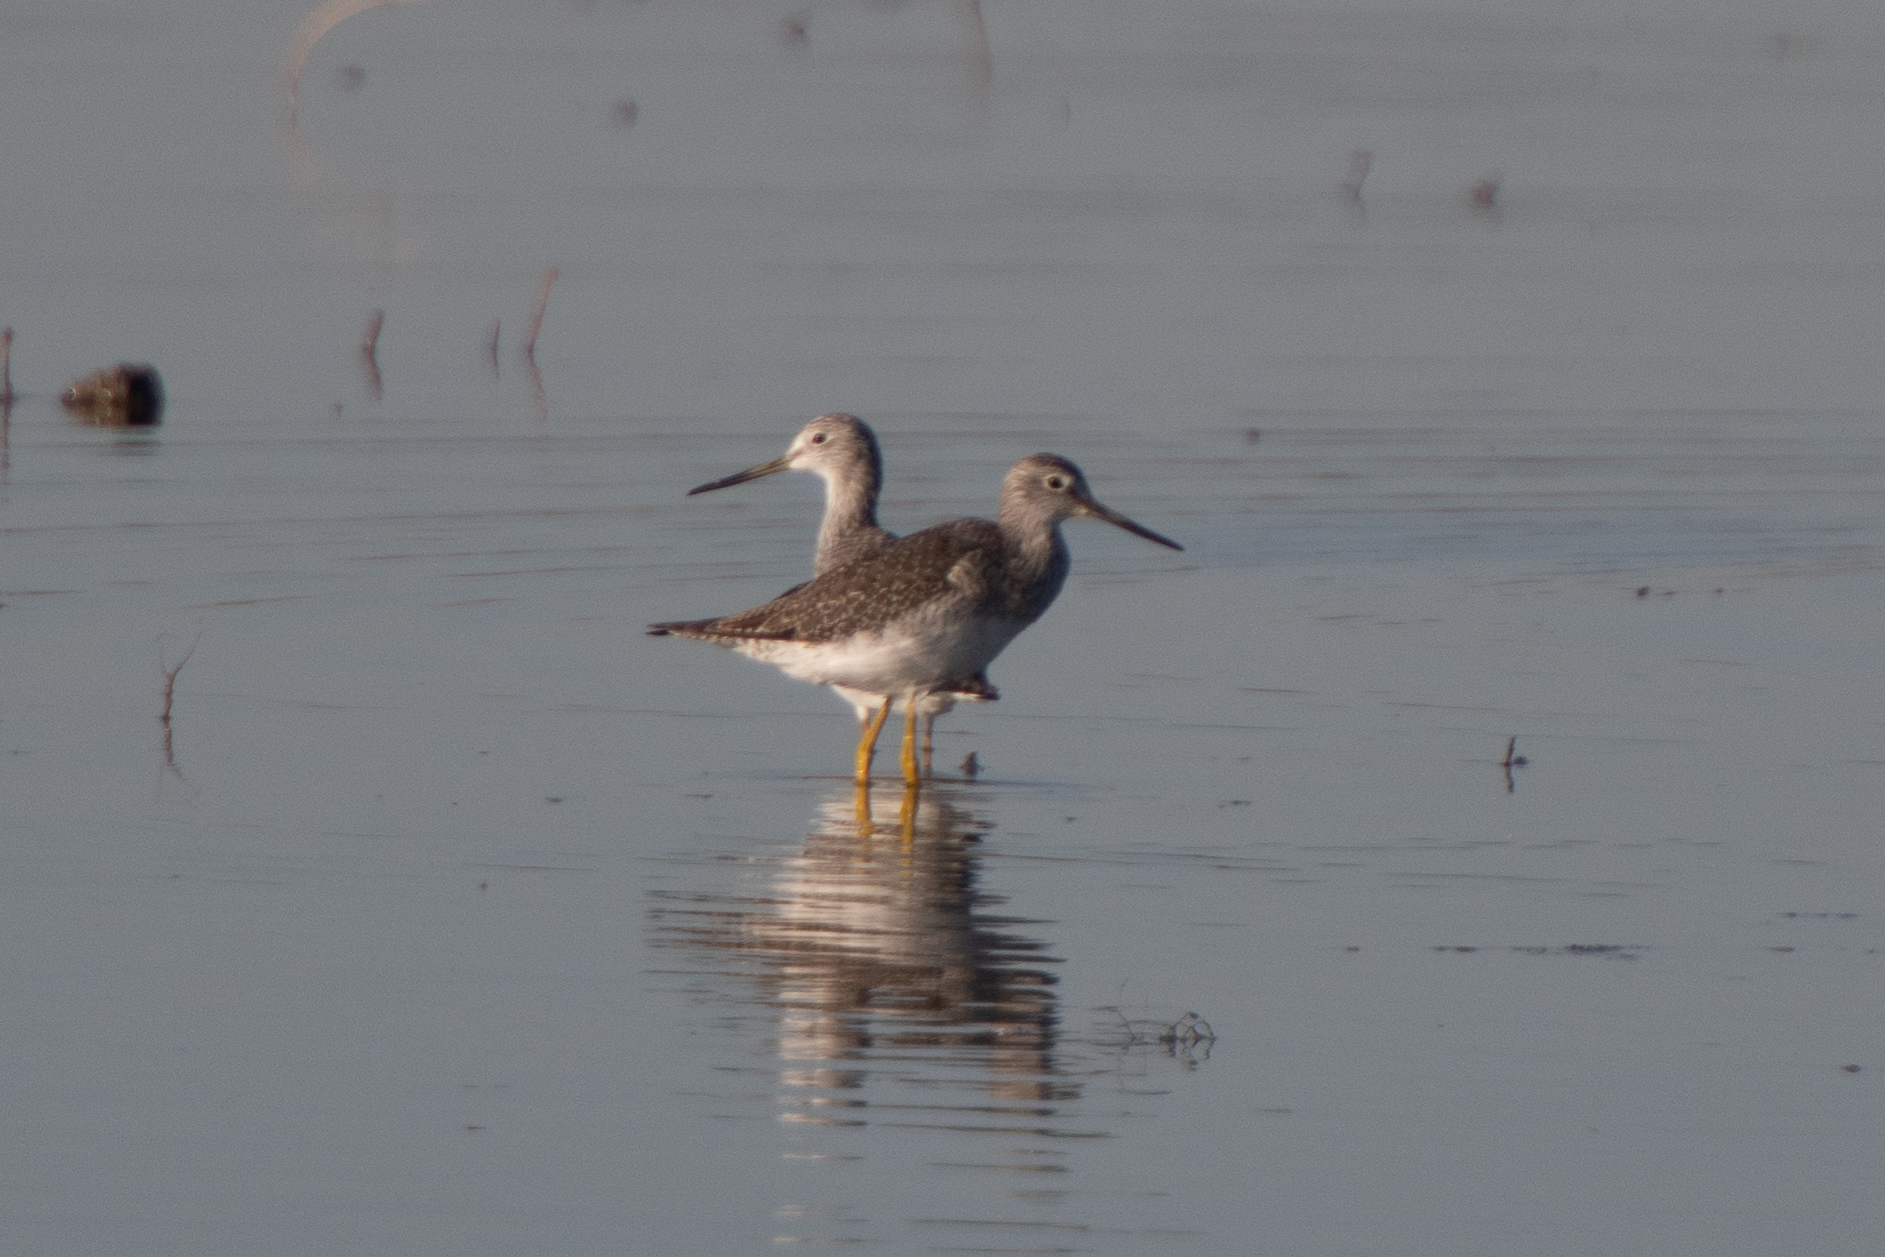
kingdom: Animalia
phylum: Chordata
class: Aves
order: Charadriiformes
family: Scolopacidae
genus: Tringa
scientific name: Tringa melanoleuca
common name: Greater yellowlegs
